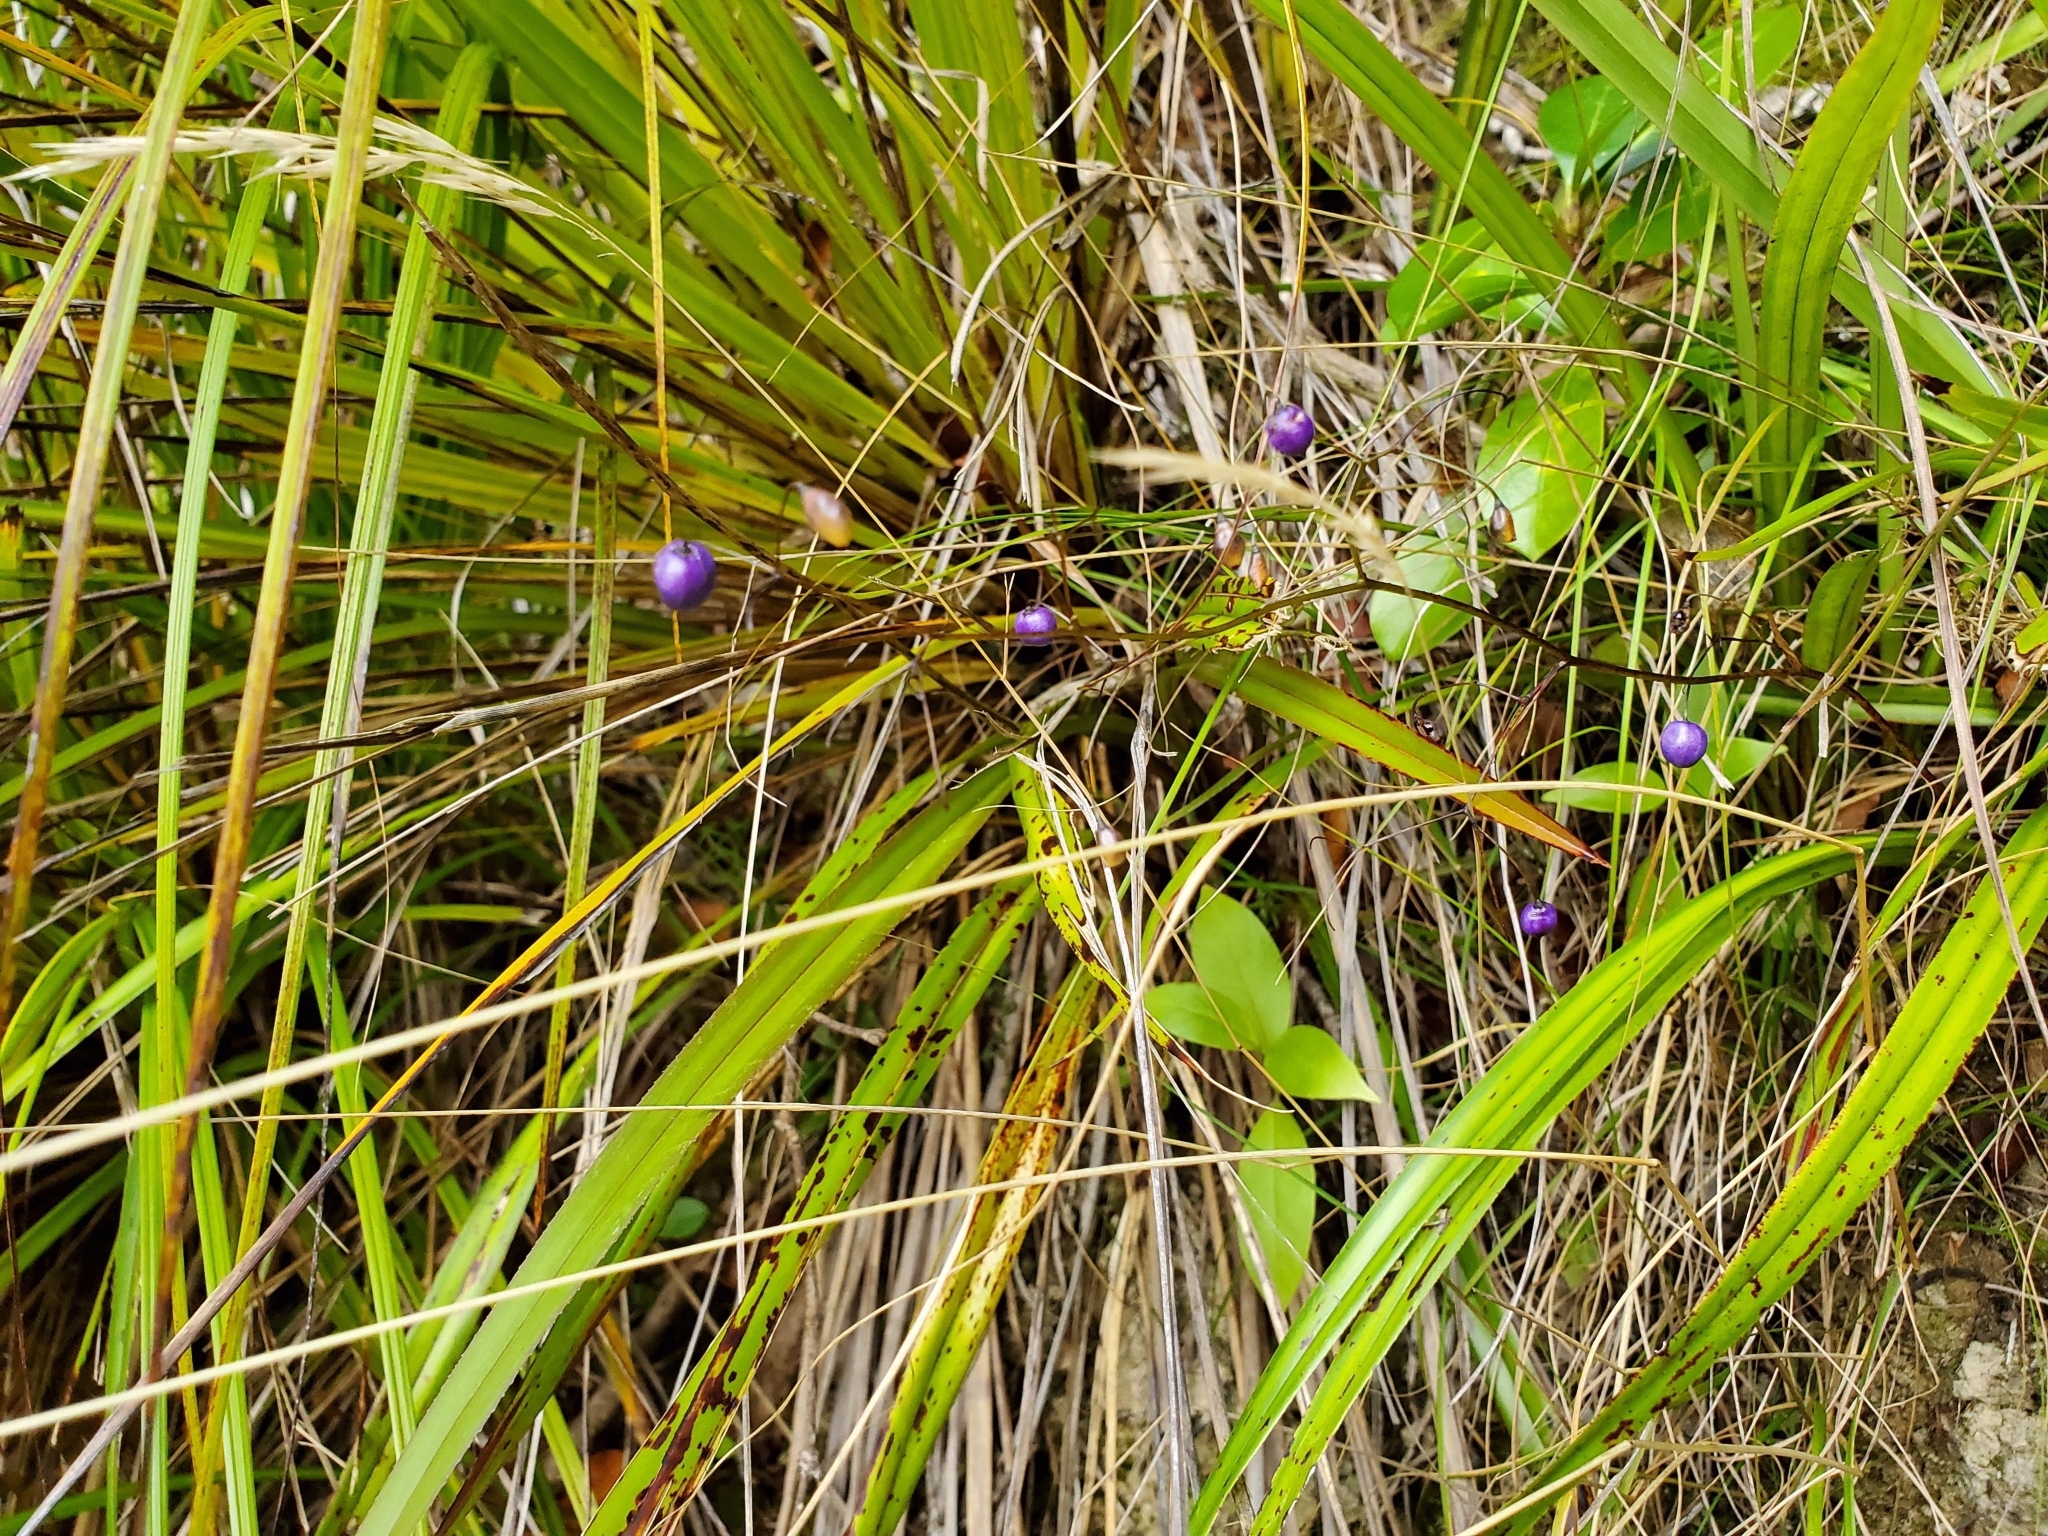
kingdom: Plantae
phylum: Tracheophyta
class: Liliopsida
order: Asparagales
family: Asphodelaceae
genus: Dianella
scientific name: Dianella nigra
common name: New zealand-blueberry
